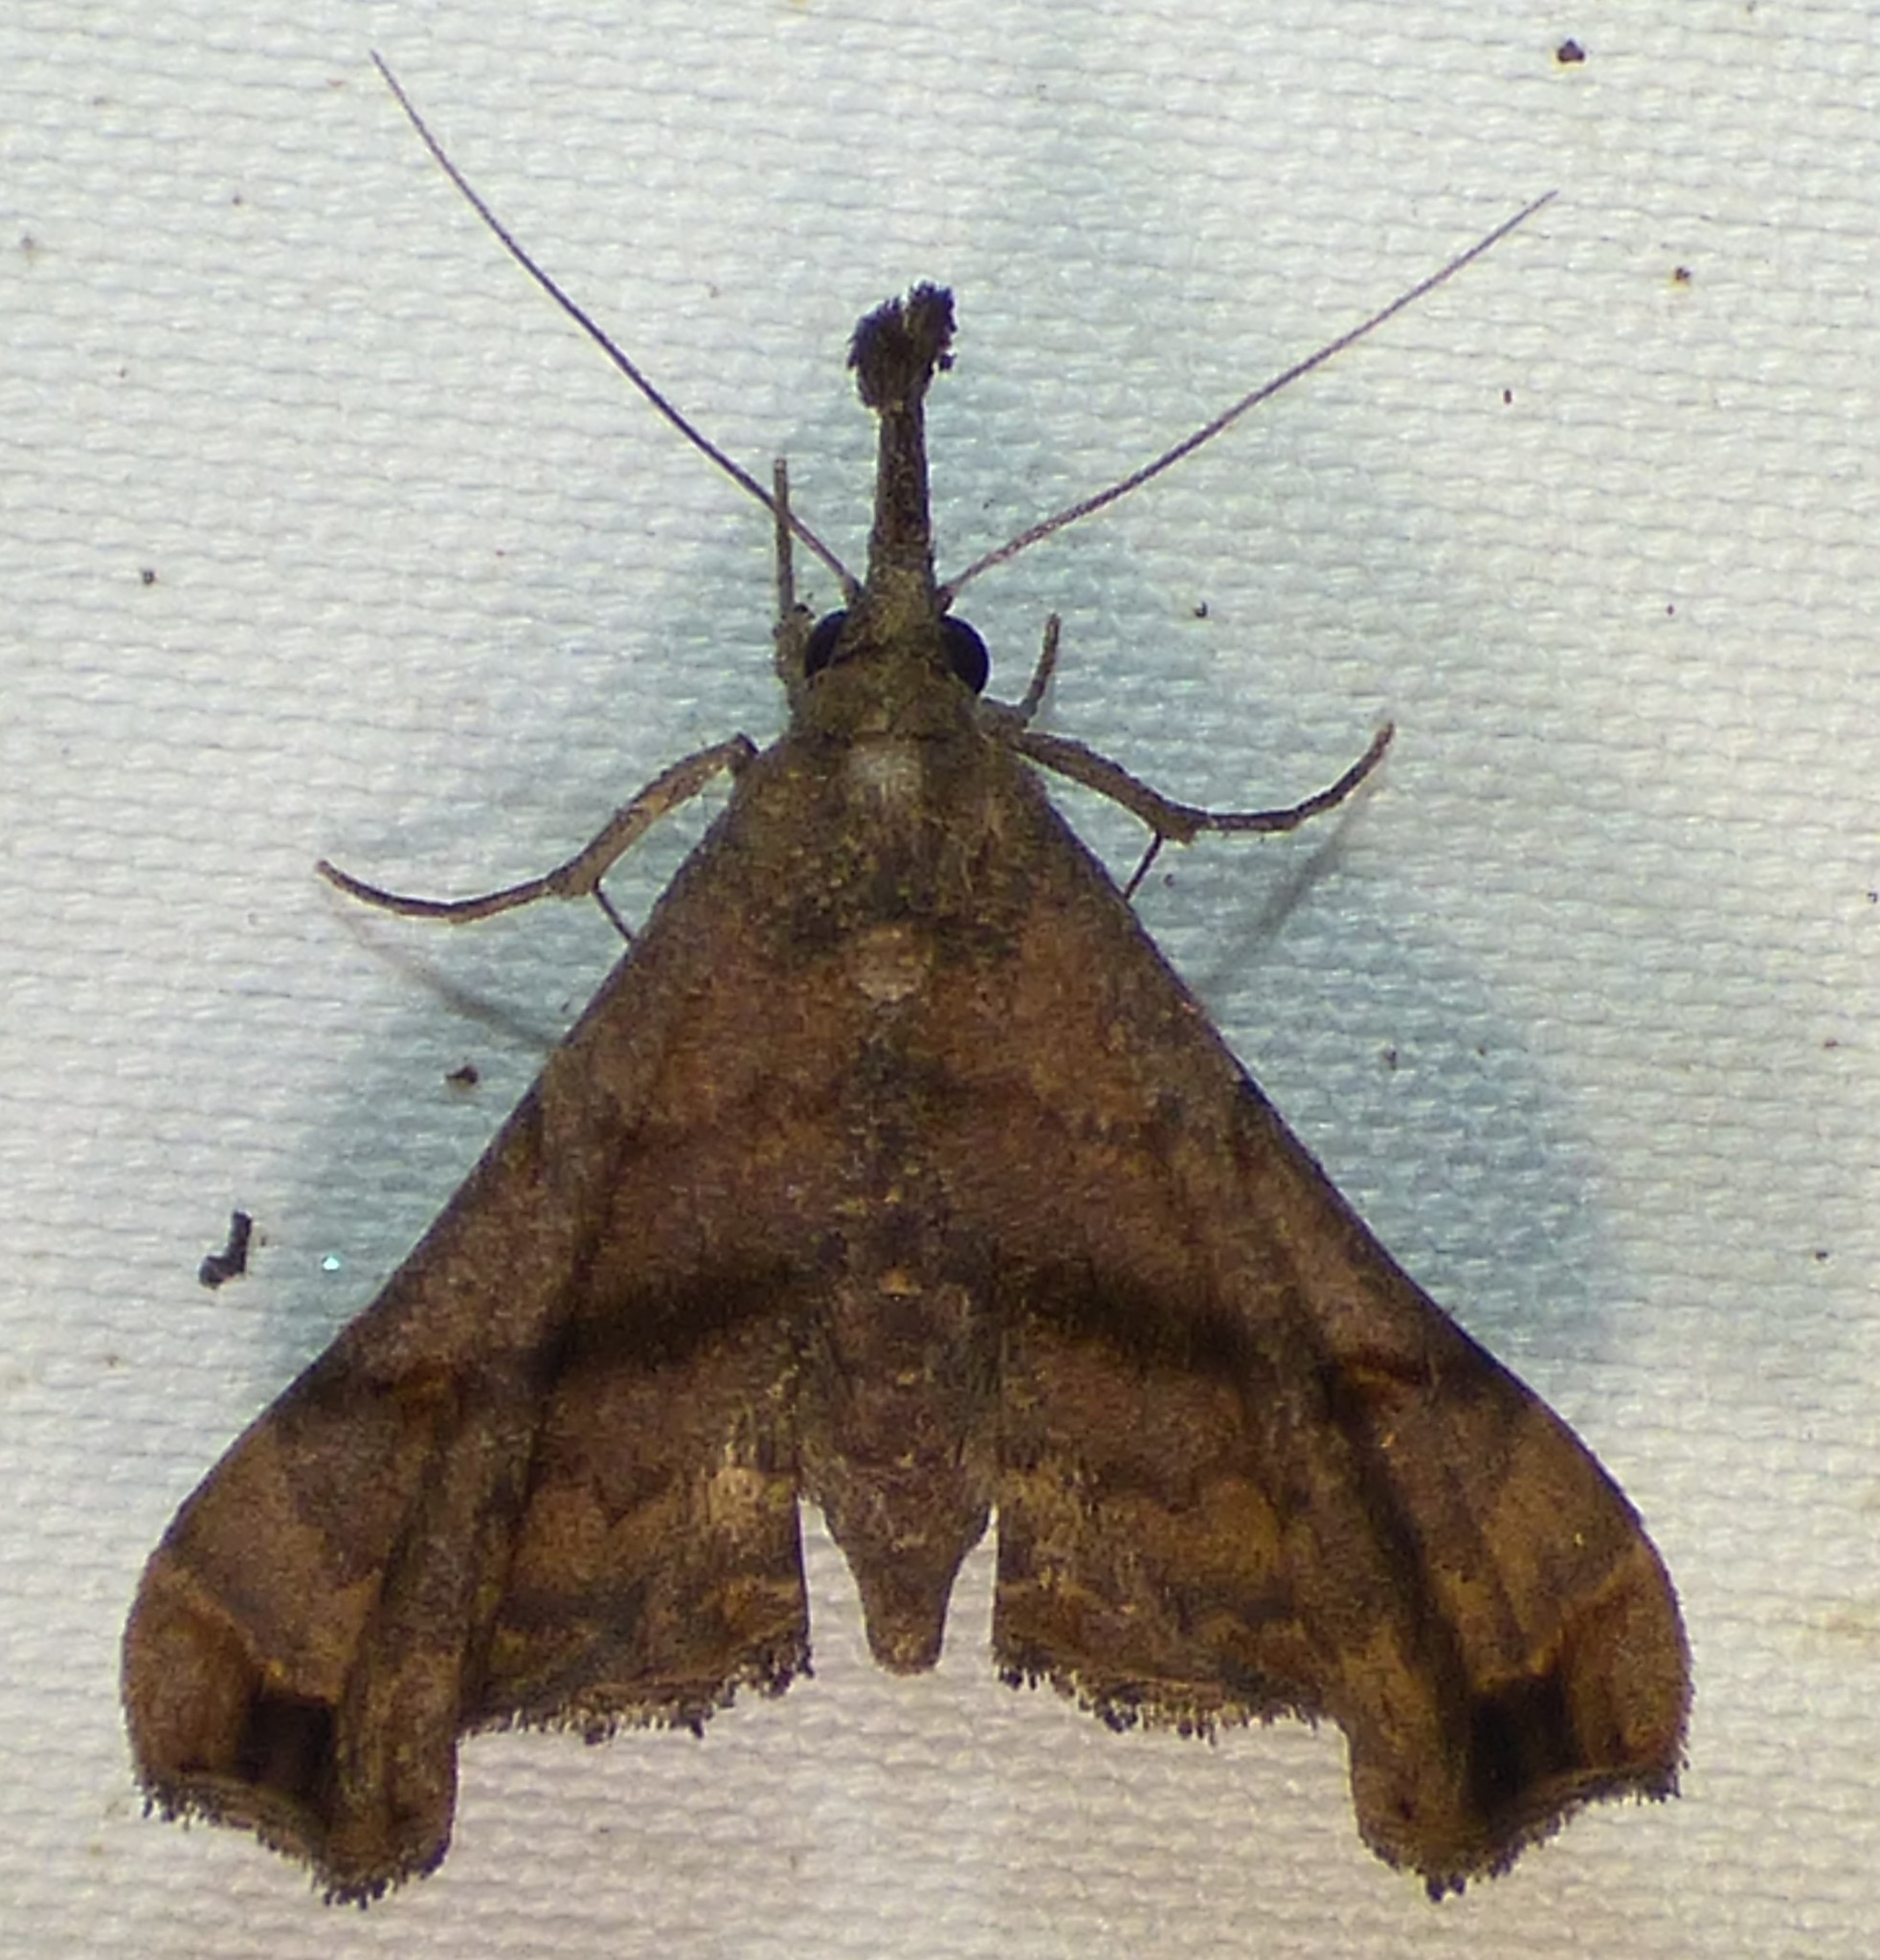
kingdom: Animalia
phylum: Arthropoda
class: Insecta
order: Lepidoptera
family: Erebidae
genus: Palthis
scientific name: Palthis asopialis
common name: Faint-spotted palthis moth
